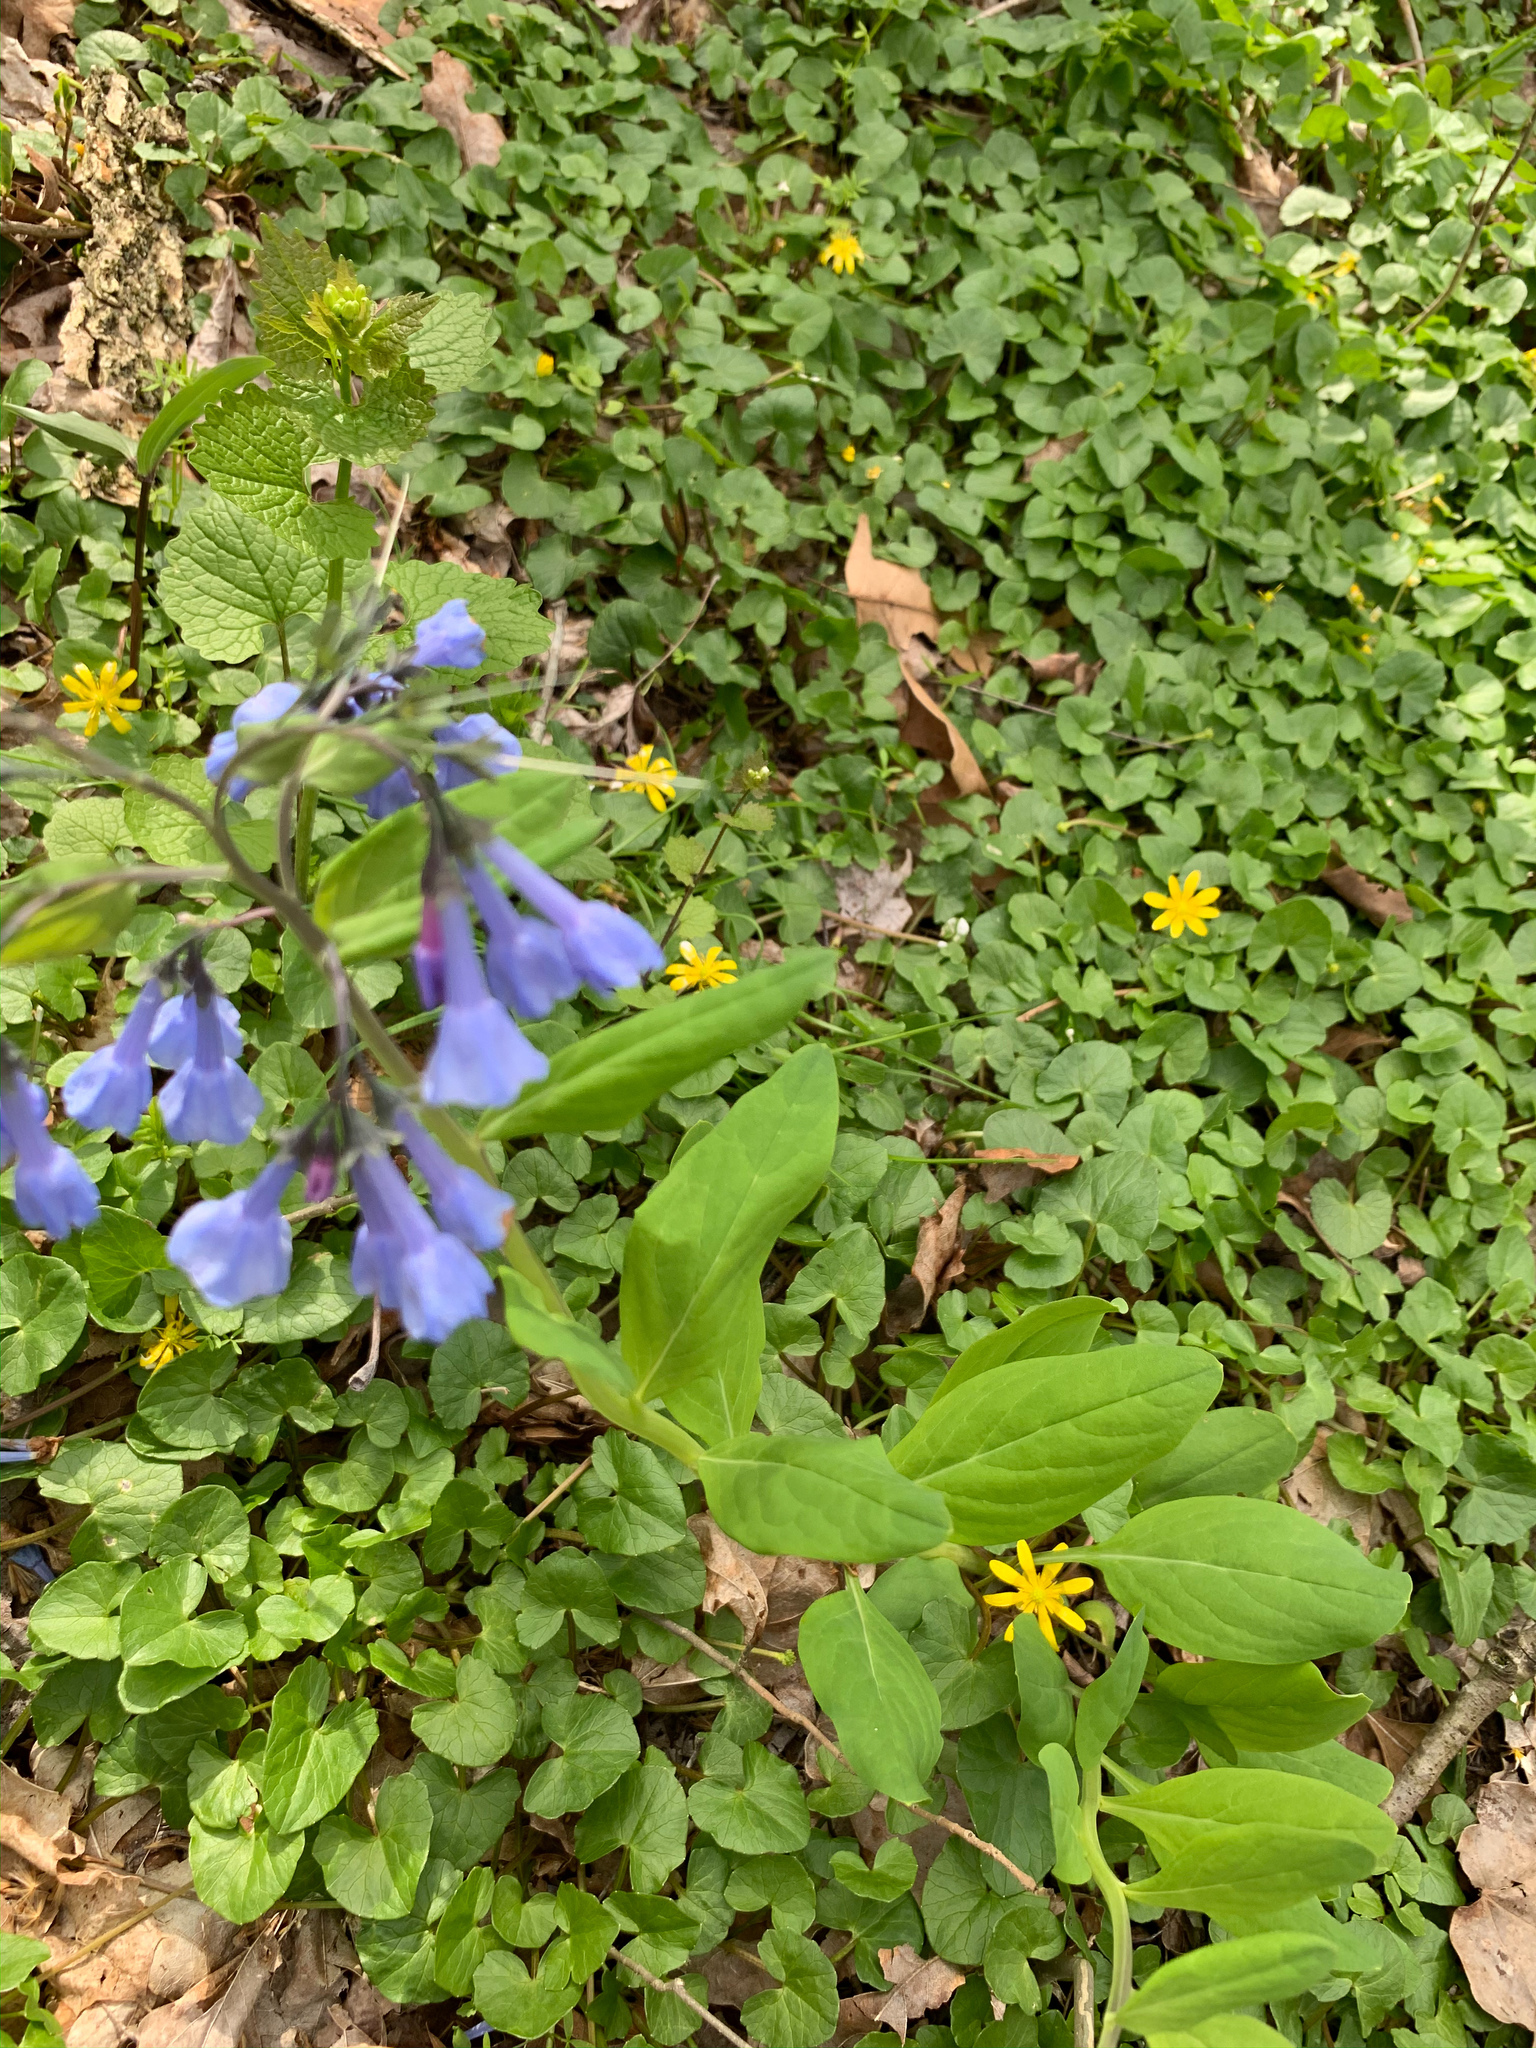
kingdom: Plantae
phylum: Tracheophyta
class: Magnoliopsida
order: Boraginales
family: Boraginaceae
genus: Mertensia
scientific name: Mertensia virginica
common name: Virginia bluebells
